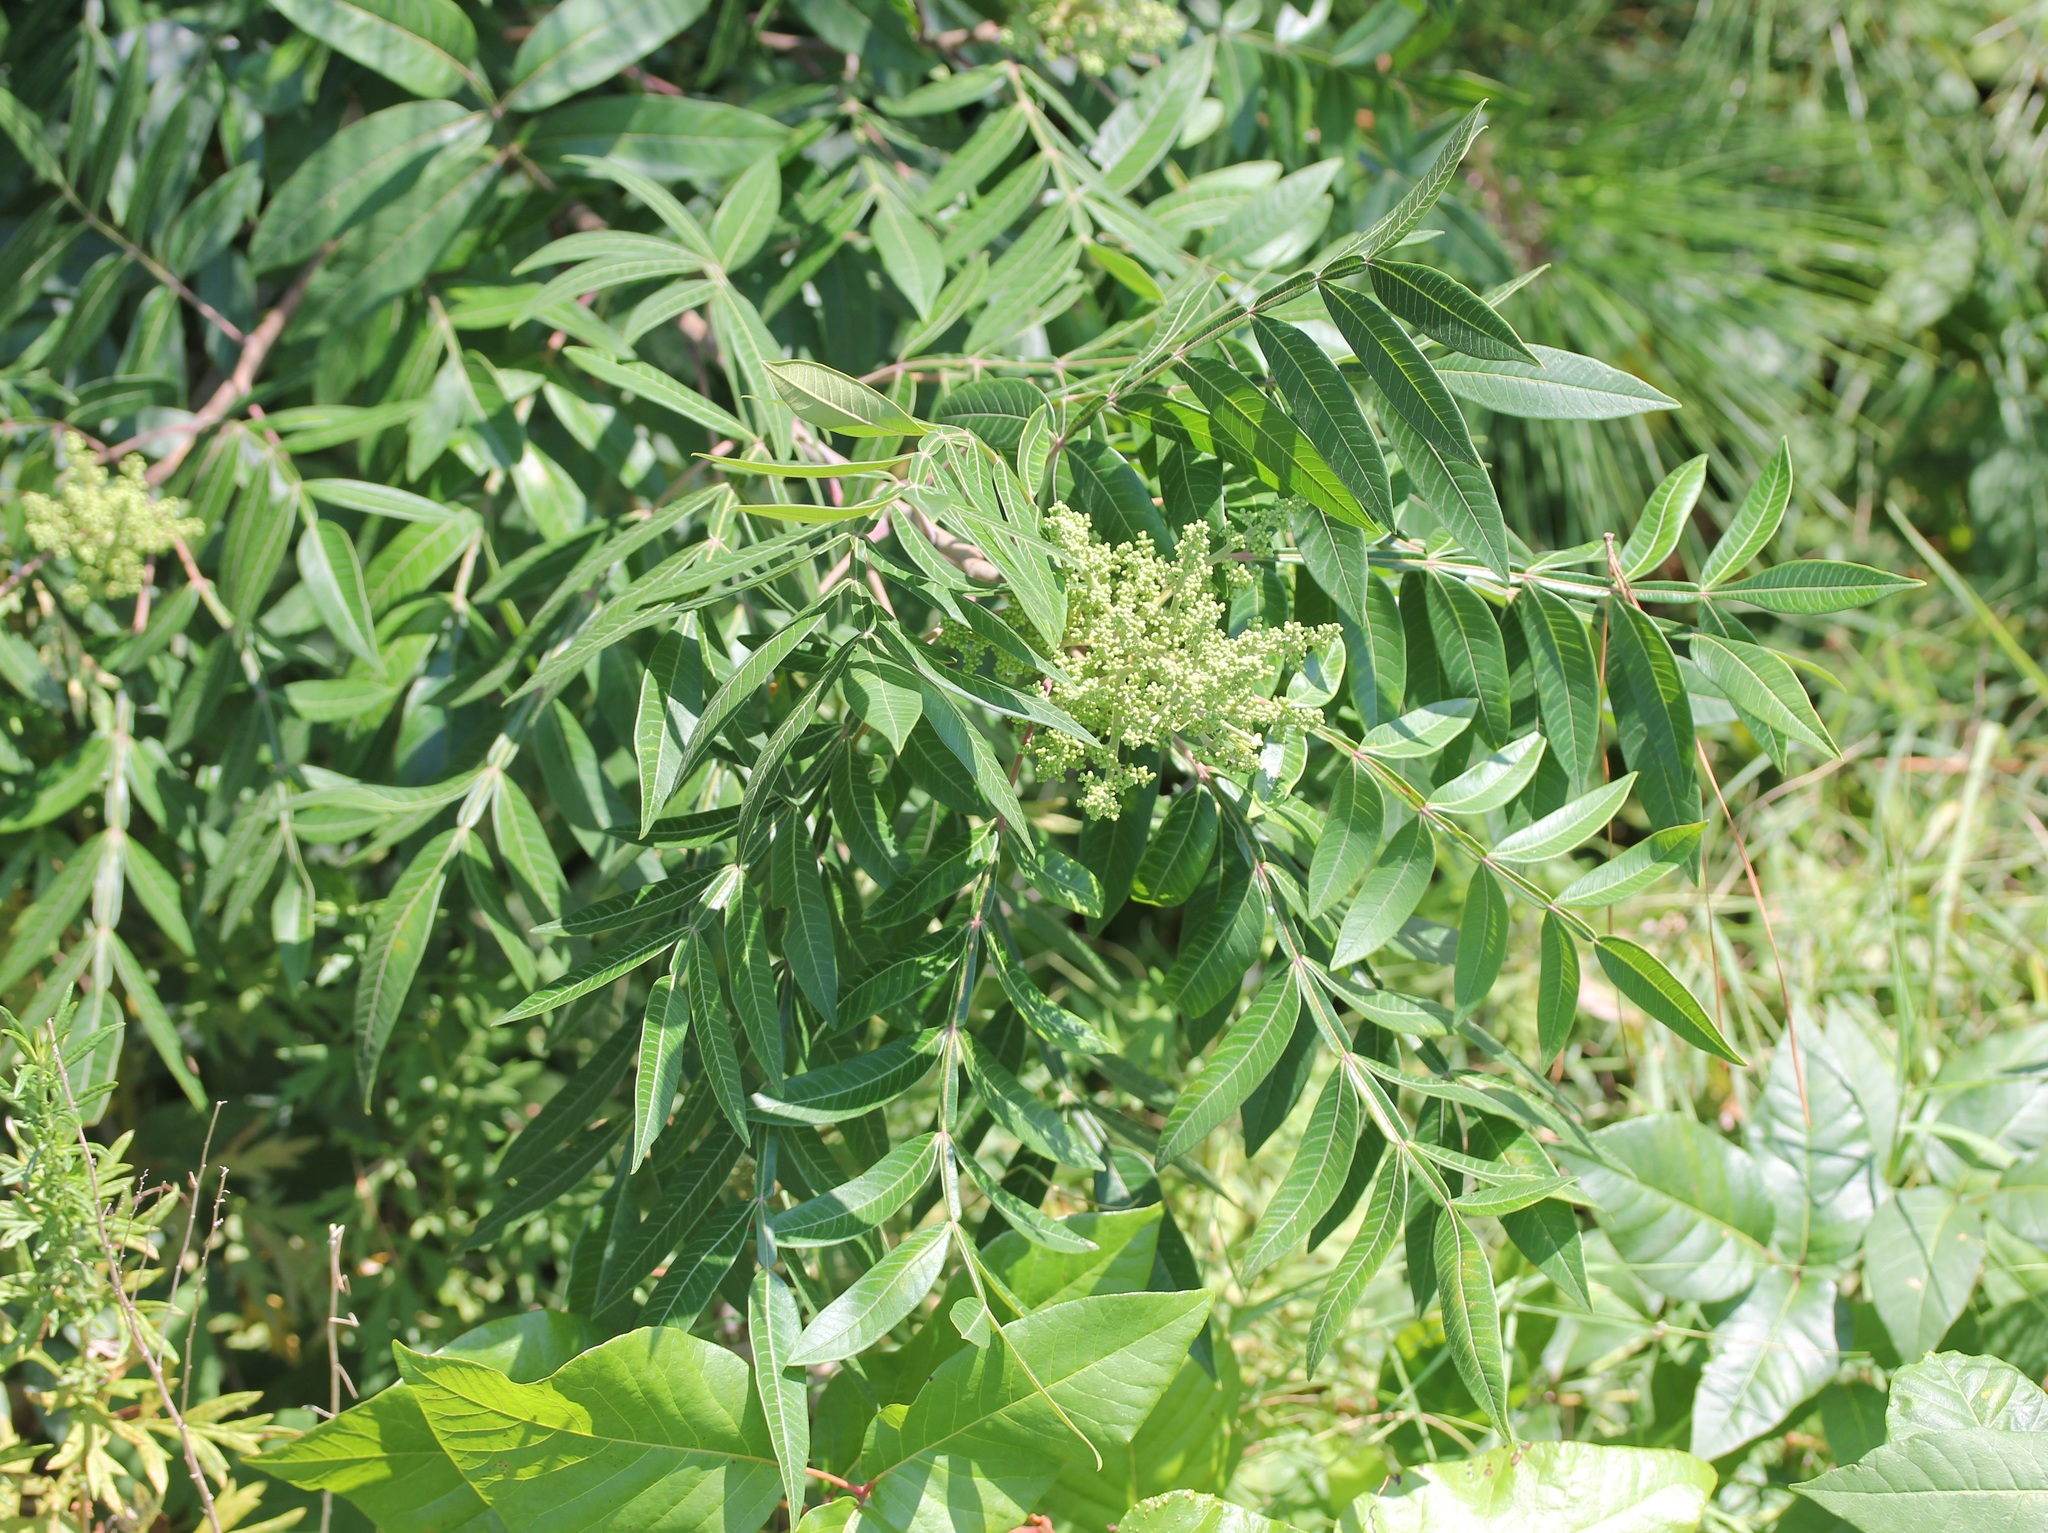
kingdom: Plantae
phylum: Tracheophyta
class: Magnoliopsida
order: Sapindales
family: Anacardiaceae
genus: Rhus
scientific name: Rhus copallina
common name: Shining sumac
